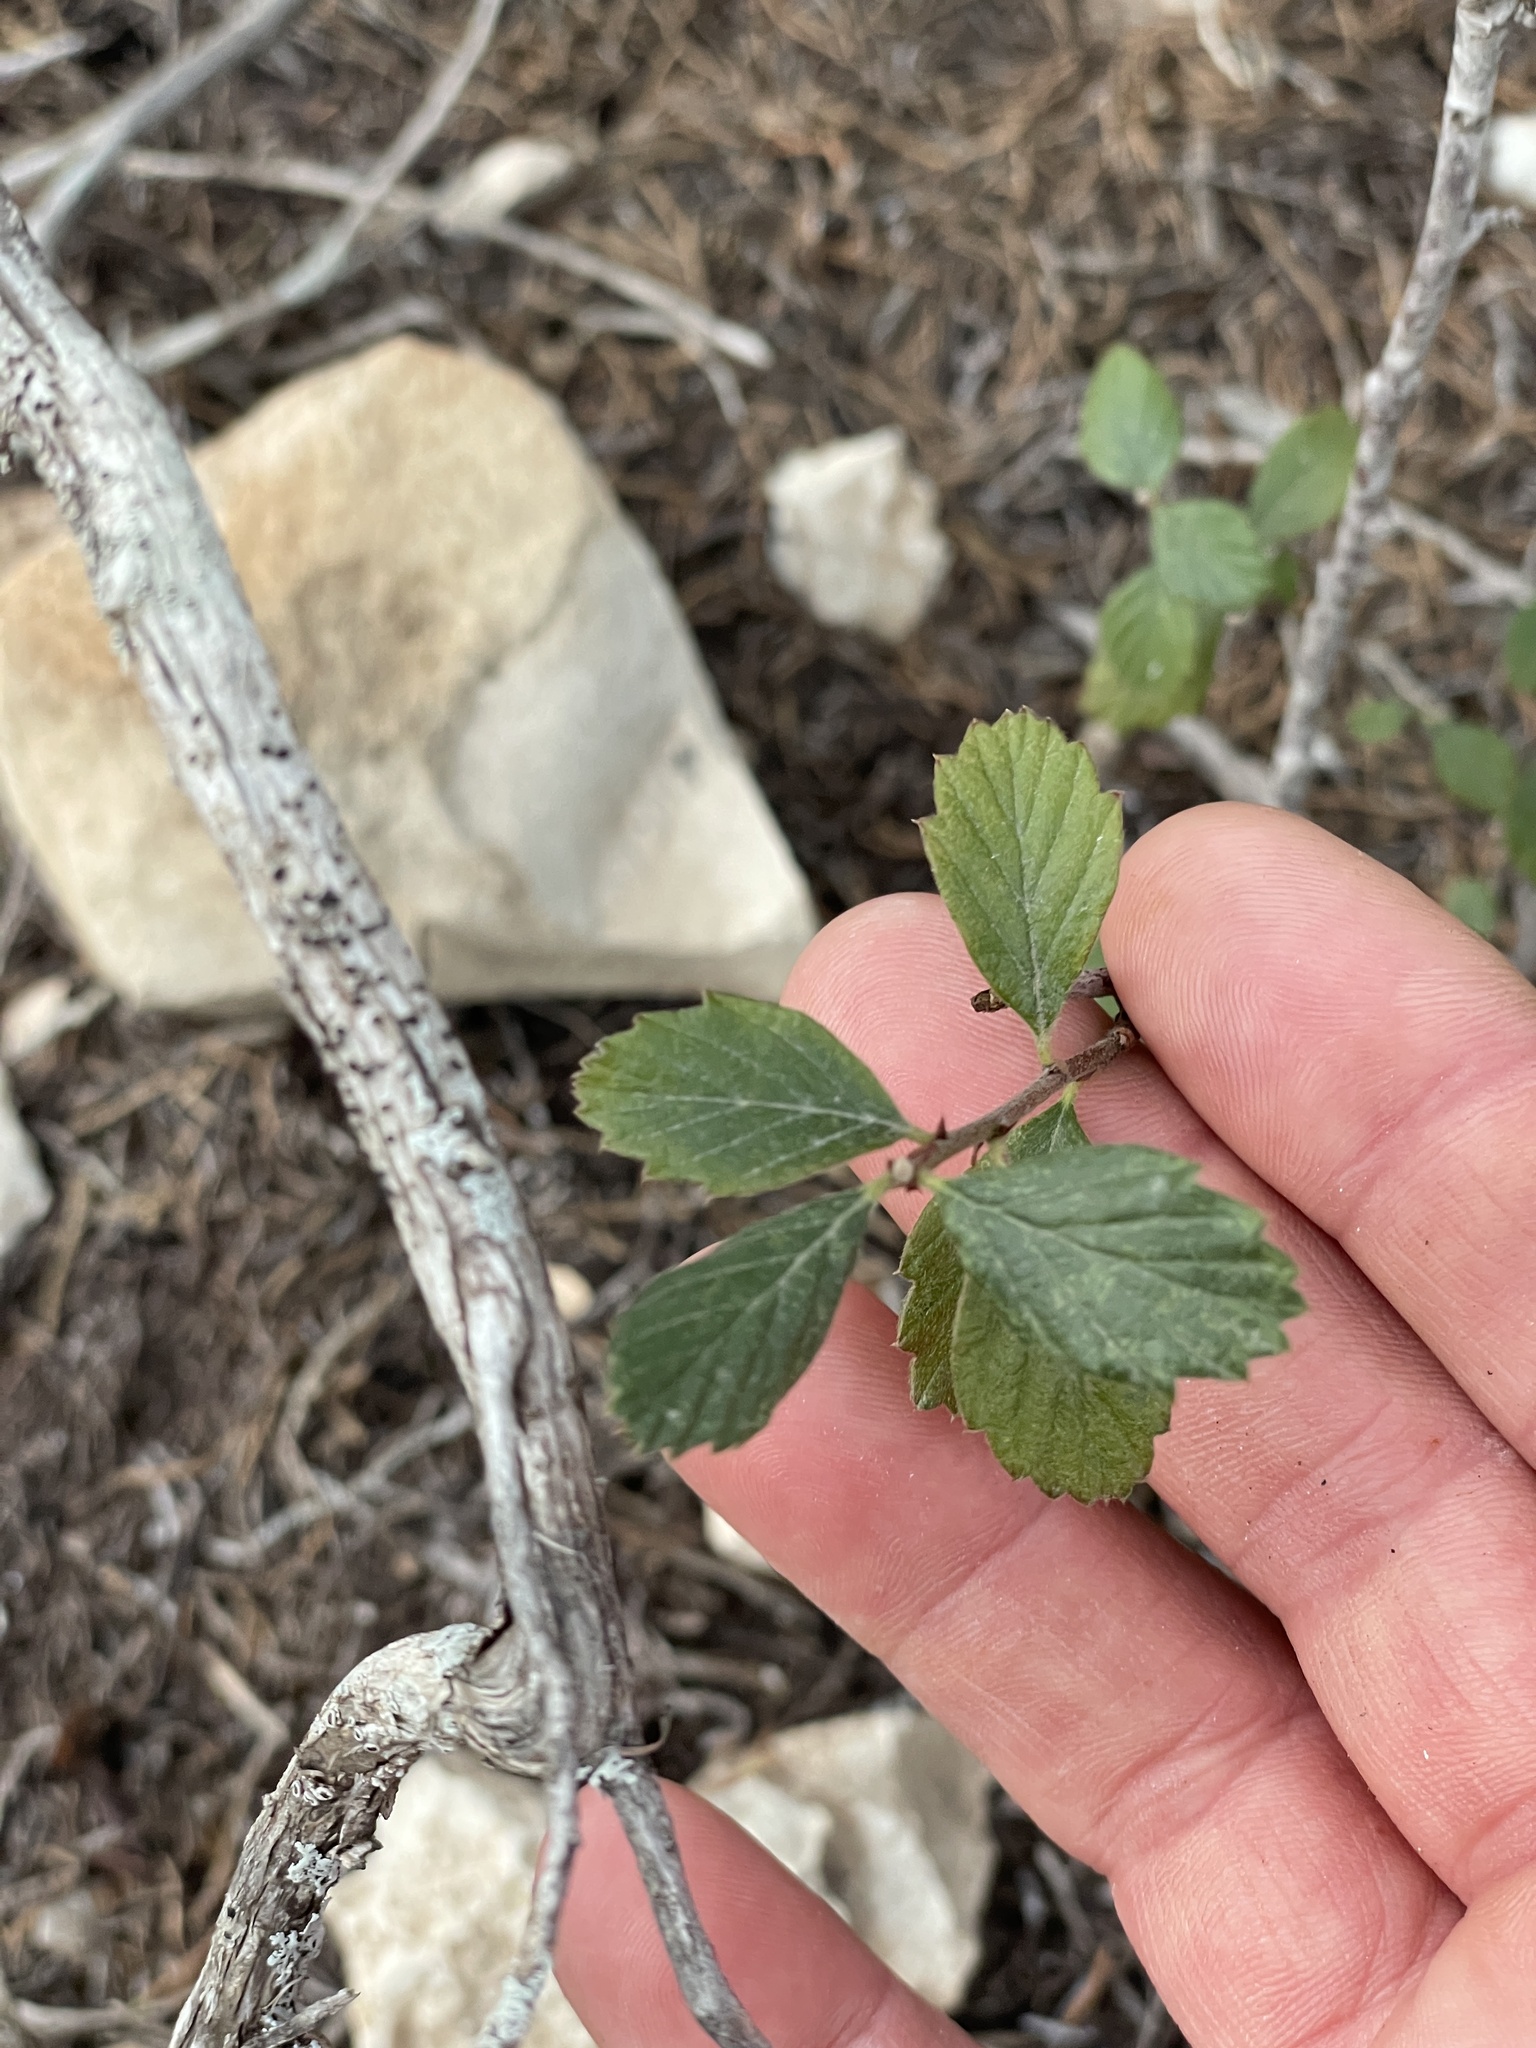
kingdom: Plantae
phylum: Tracheophyta
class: Magnoliopsida
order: Rosales
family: Rosaceae
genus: Cercocarpus
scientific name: Cercocarpus montanus
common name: Alder-leaf cercocarpus
